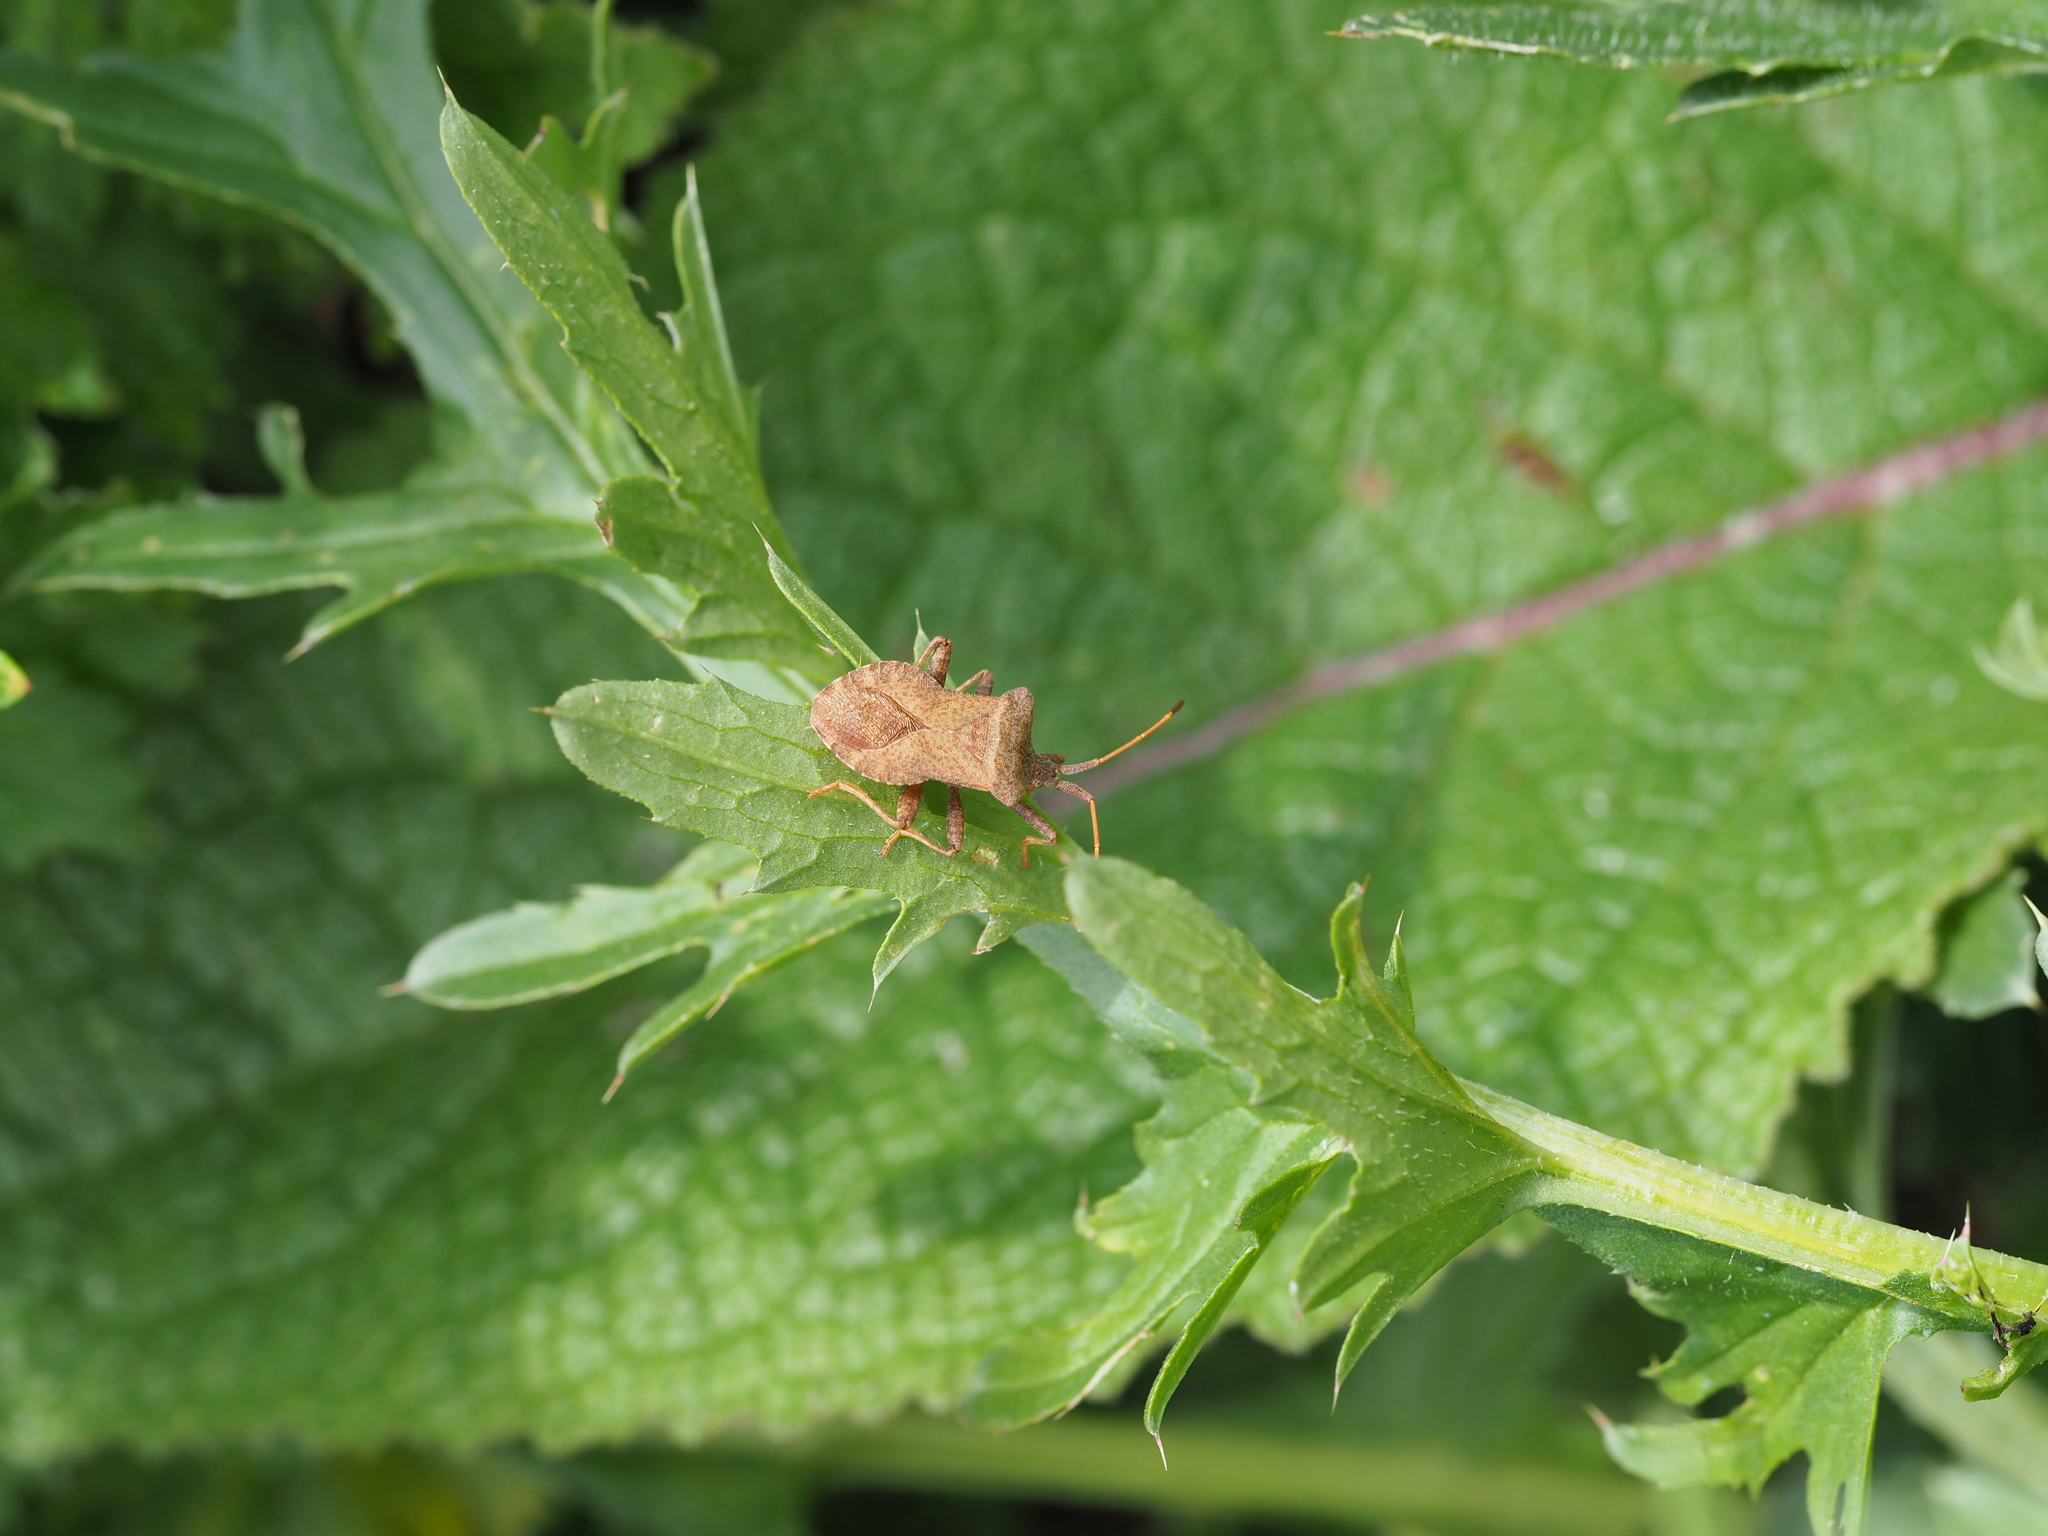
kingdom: Animalia
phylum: Arthropoda
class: Insecta
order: Hemiptera
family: Coreidae
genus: Coreus
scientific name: Coreus marginatus
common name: Dock bug
